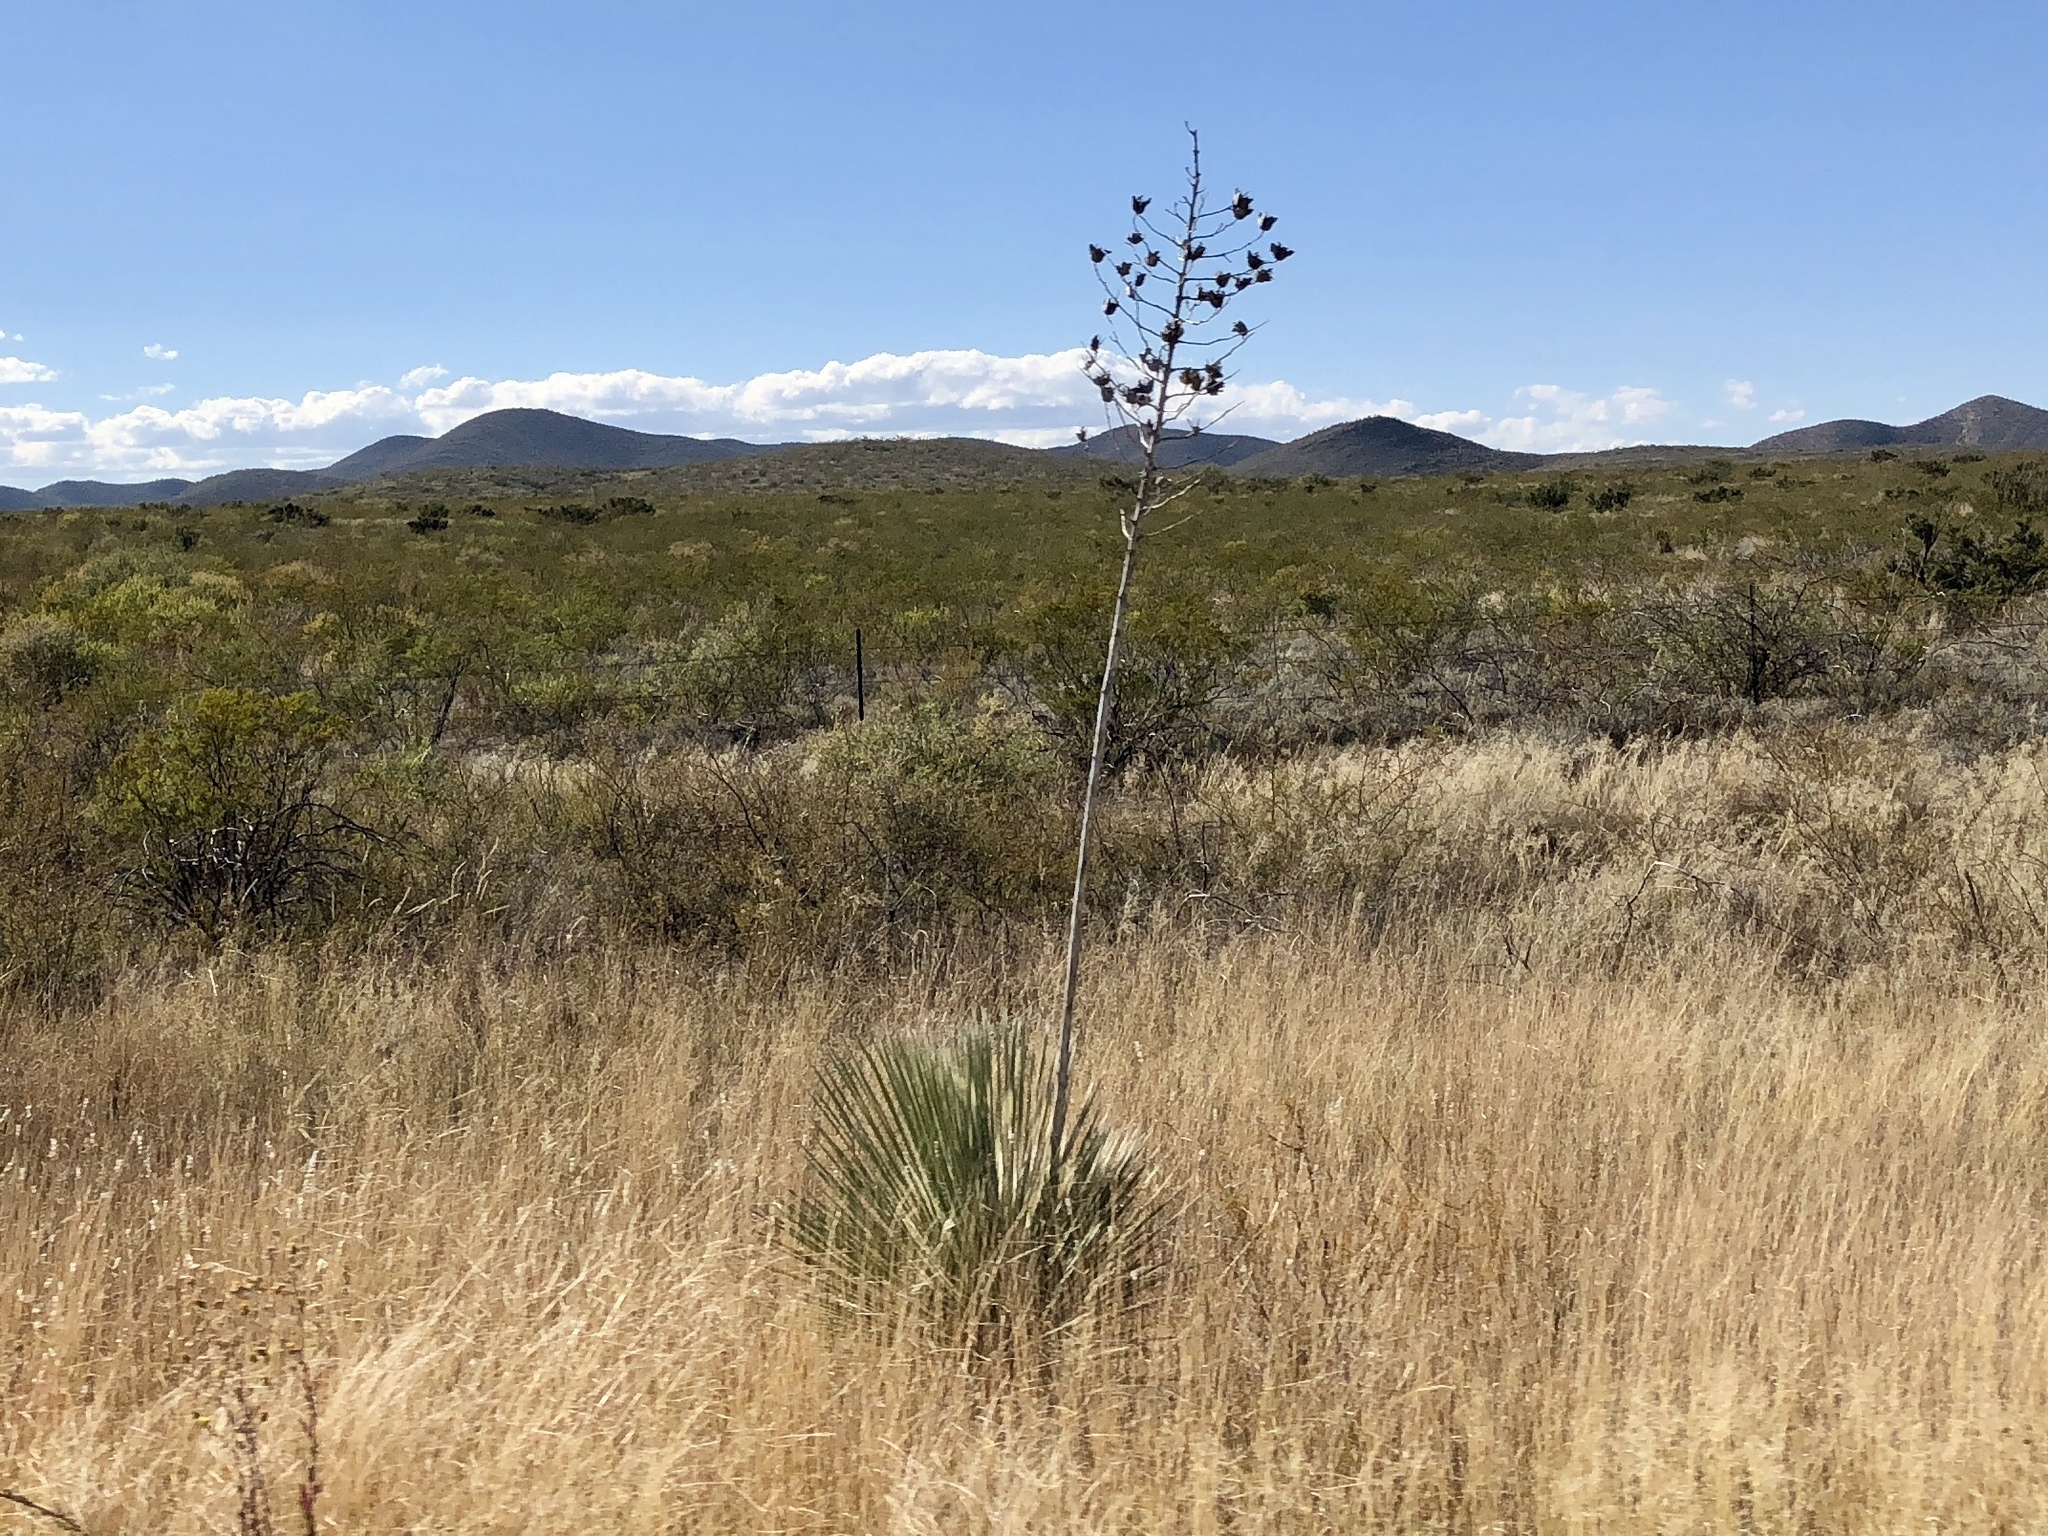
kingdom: Plantae
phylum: Tracheophyta
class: Liliopsida
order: Asparagales
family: Asparagaceae
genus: Yucca
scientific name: Yucca elata
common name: Palmella
